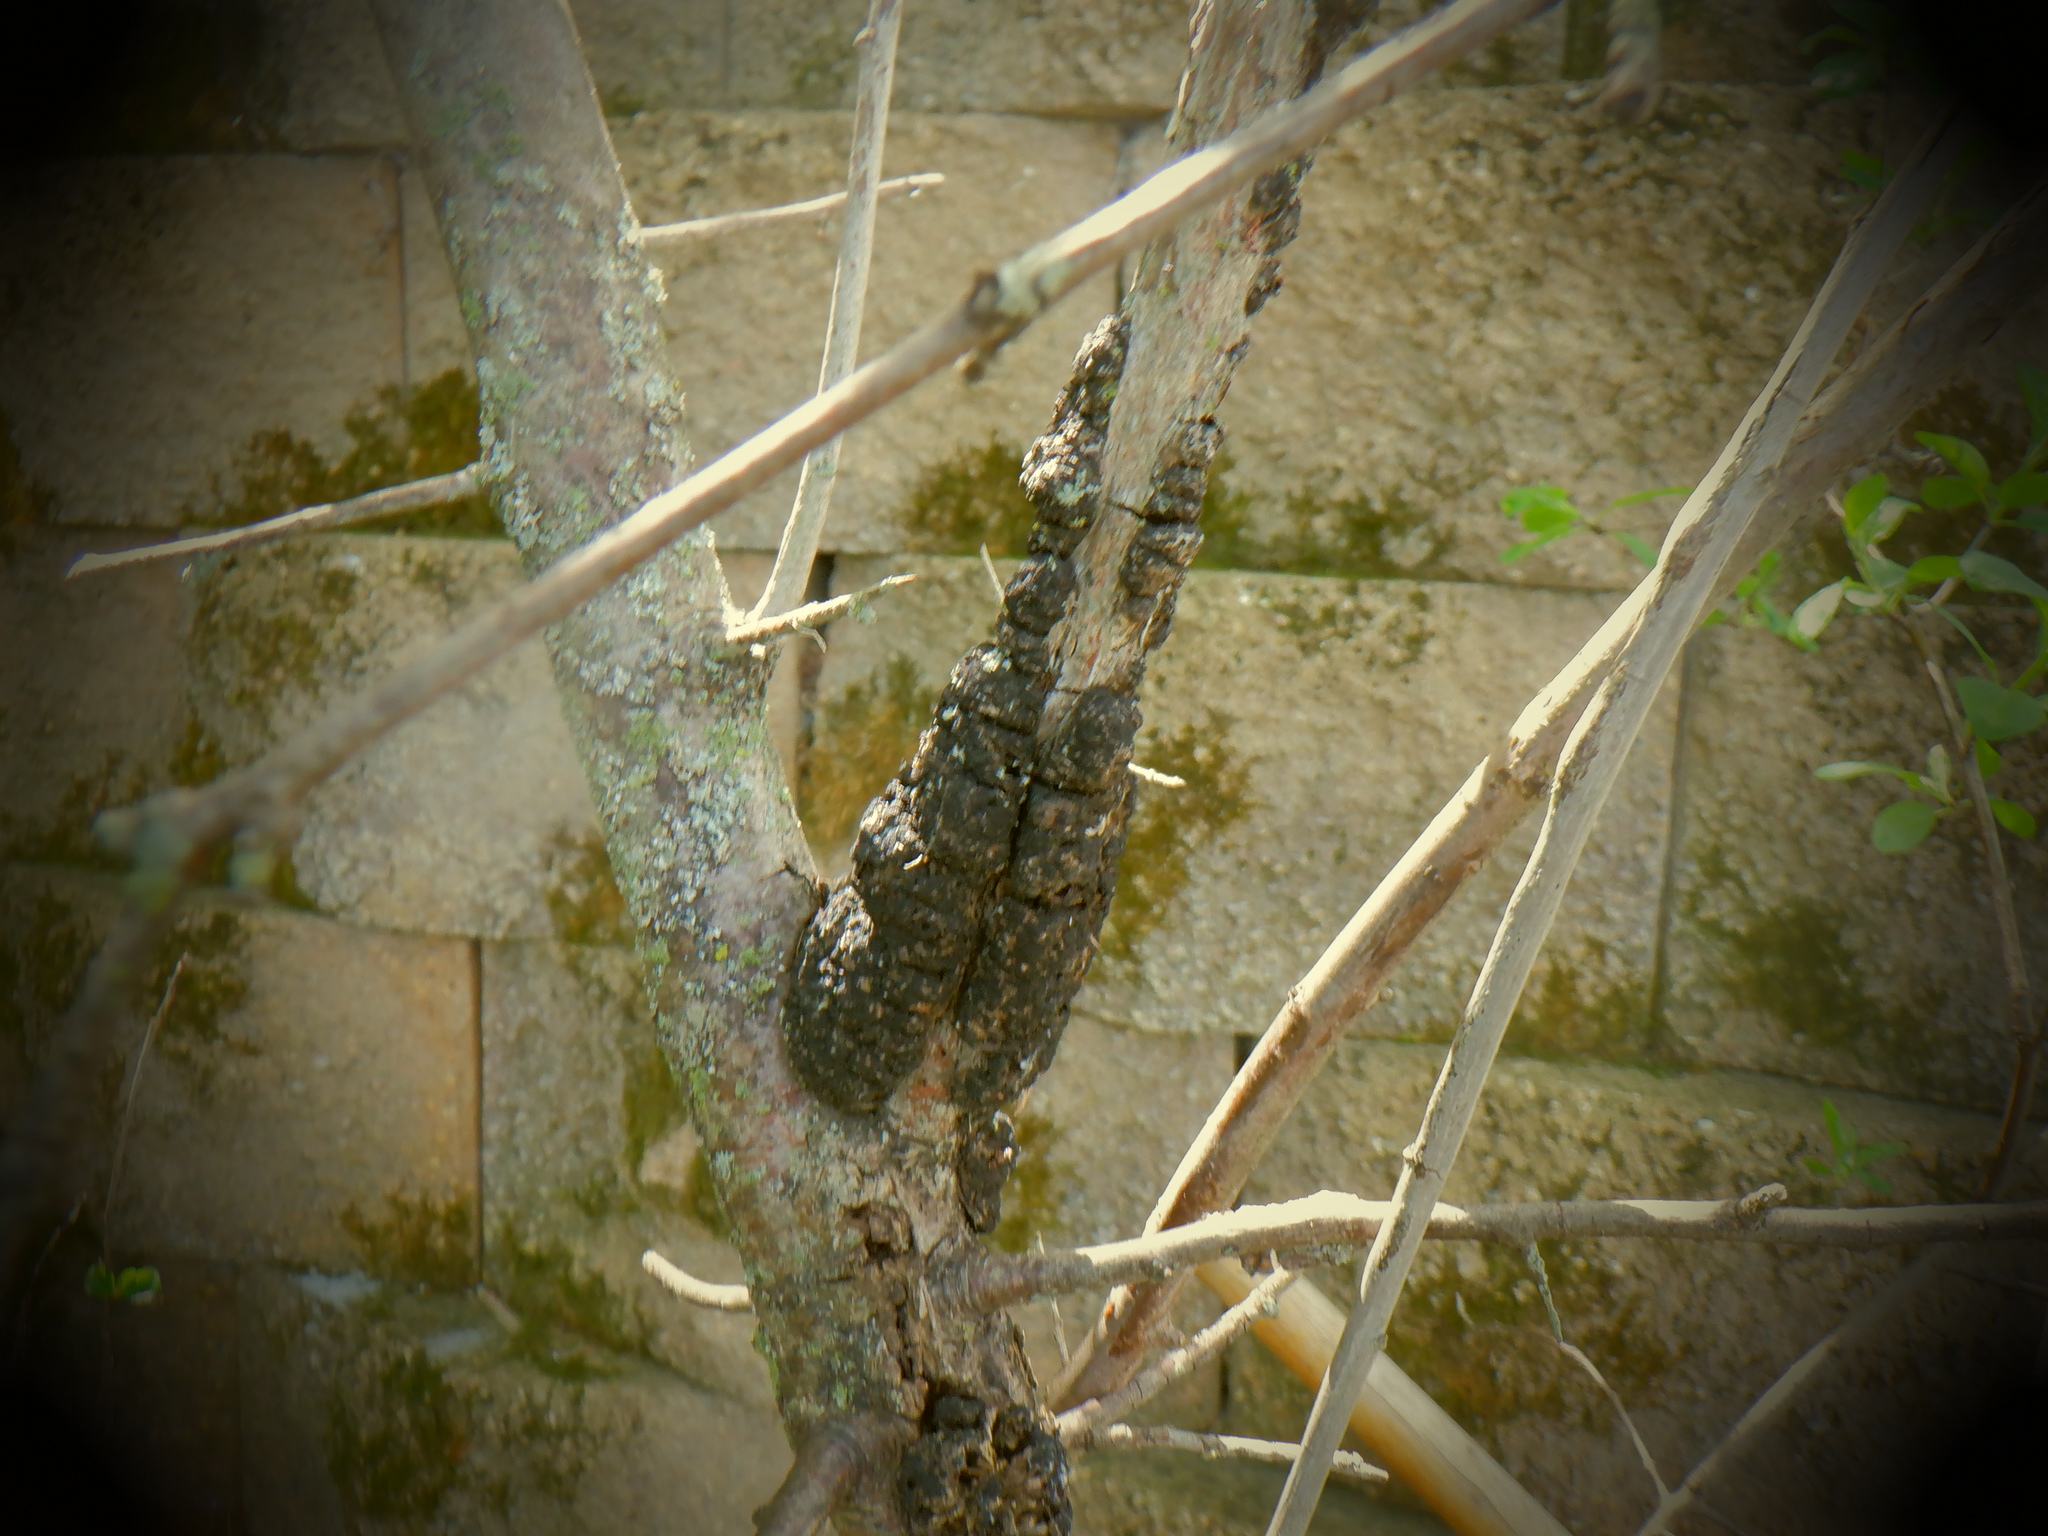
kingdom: Fungi
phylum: Ascomycota
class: Dothideomycetes
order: Venturiales
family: Venturiaceae
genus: Apiosporina
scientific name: Apiosporina morbosa
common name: Black knot
